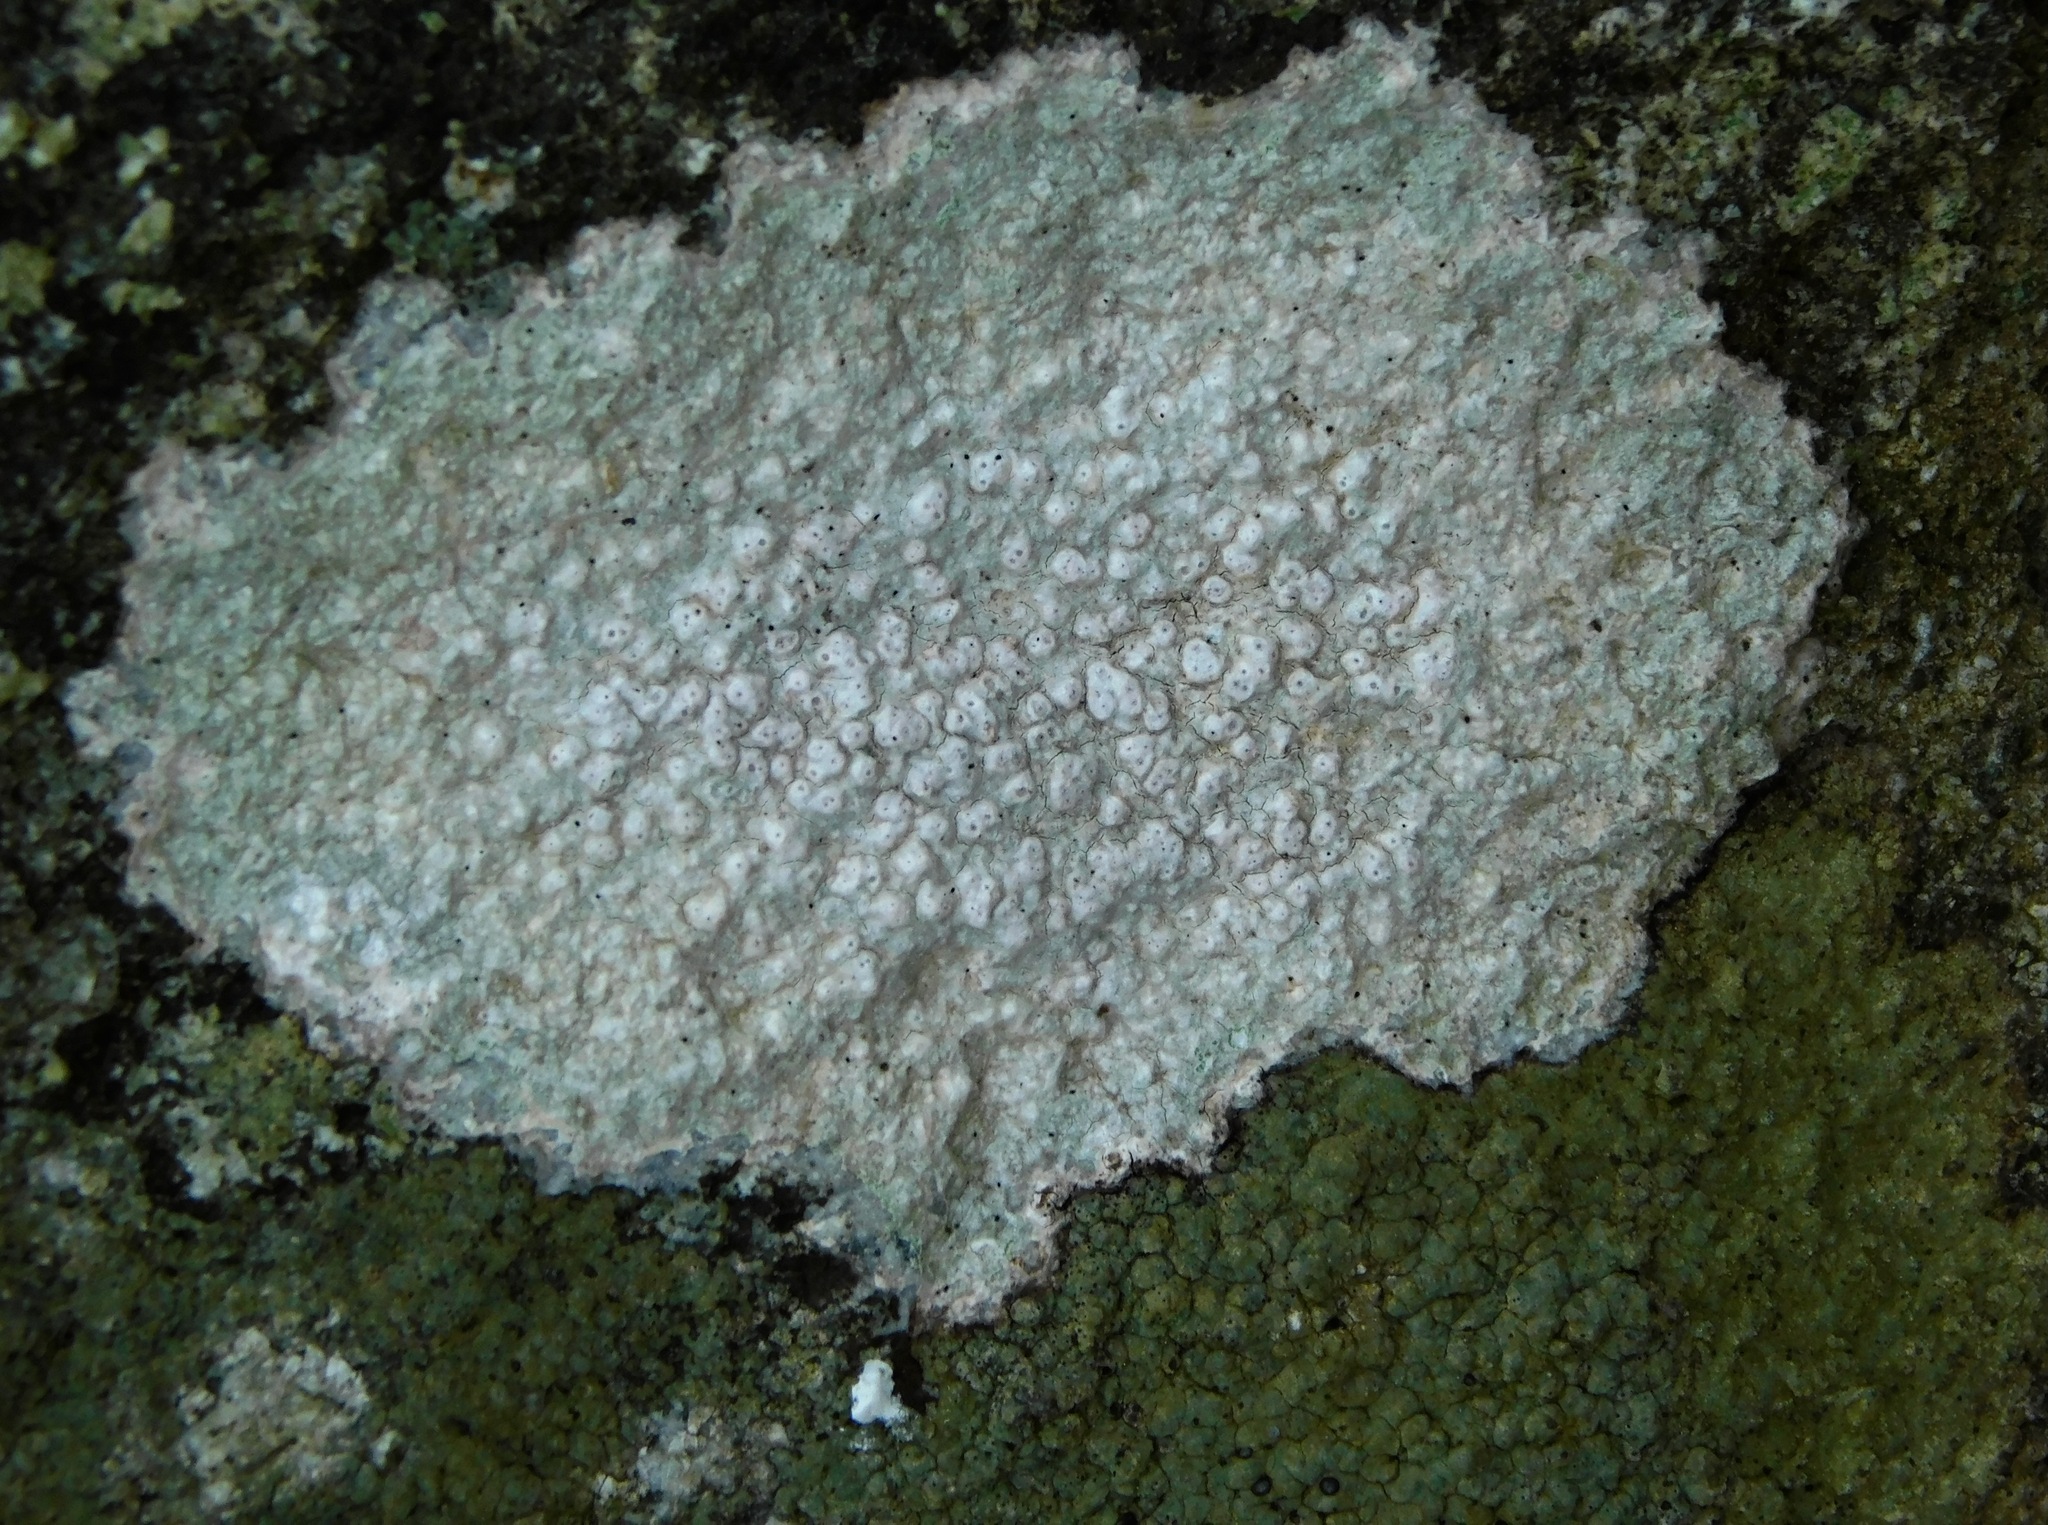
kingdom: Fungi
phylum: Ascomycota
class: Lecanoromycetes
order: Pertusariales
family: Pertusariaceae
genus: Pertusaria
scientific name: Pertusaria plittiana
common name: Rock wart lichen
